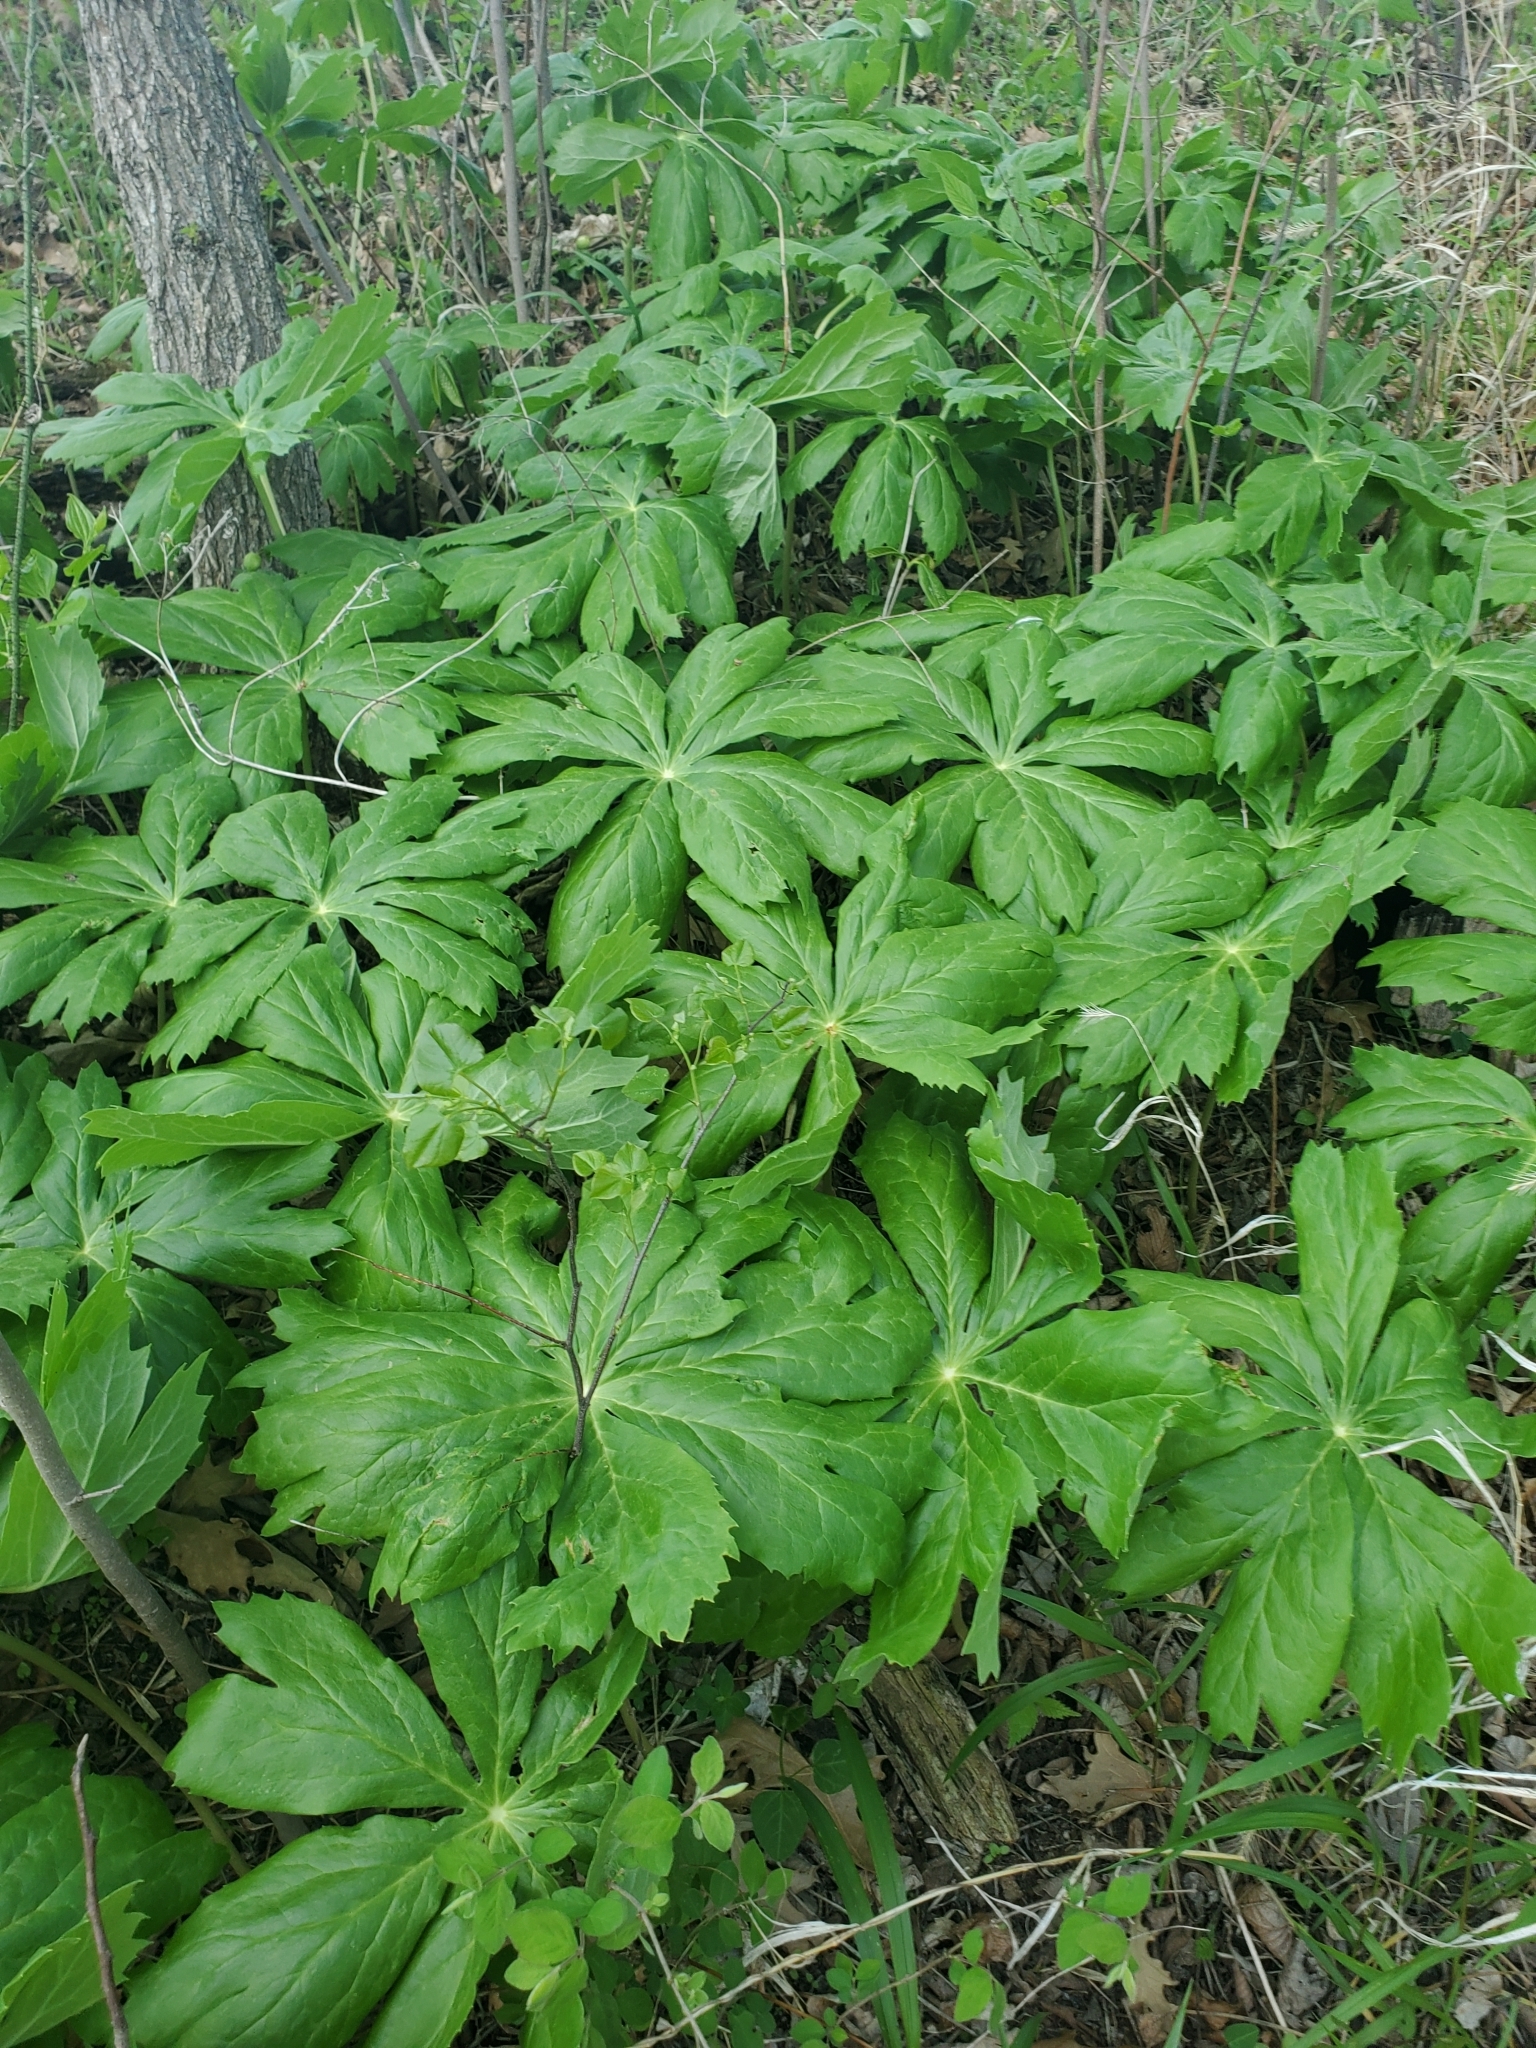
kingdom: Plantae
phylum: Tracheophyta
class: Magnoliopsida
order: Ranunculales
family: Berberidaceae
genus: Podophyllum
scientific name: Podophyllum peltatum
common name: Wild mandrake
